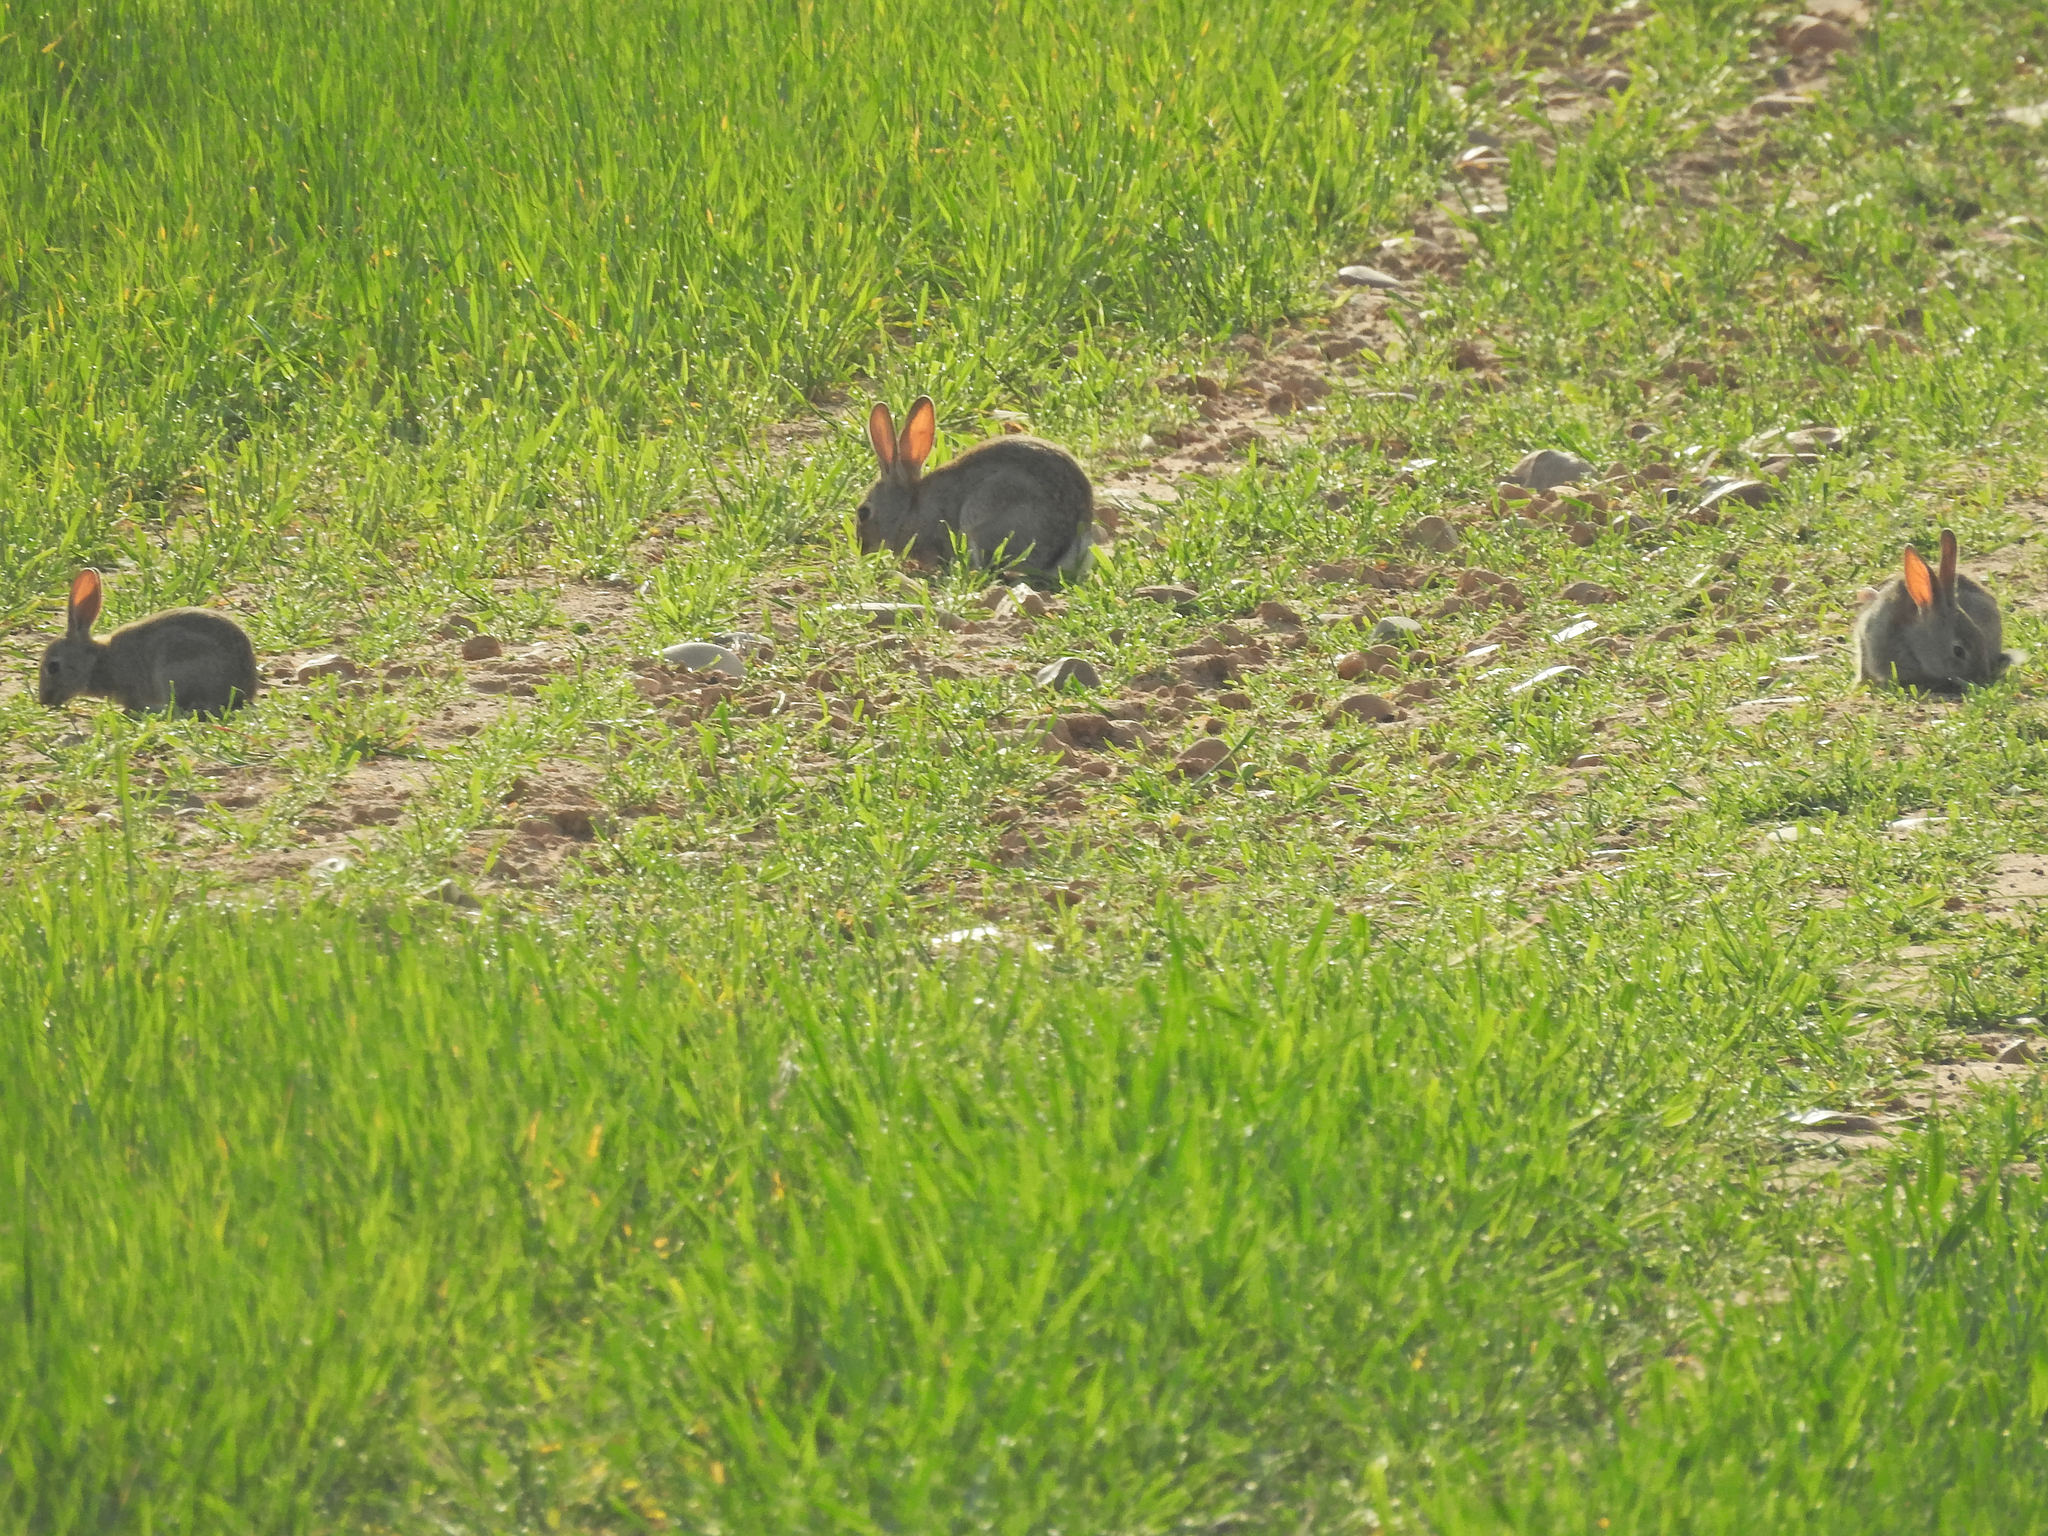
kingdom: Animalia
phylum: Chordata
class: Mammalia
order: Lagomorpha
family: Leporidae
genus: Oryctolagus
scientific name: Oryctolagus cuniculus
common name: European rabbit
